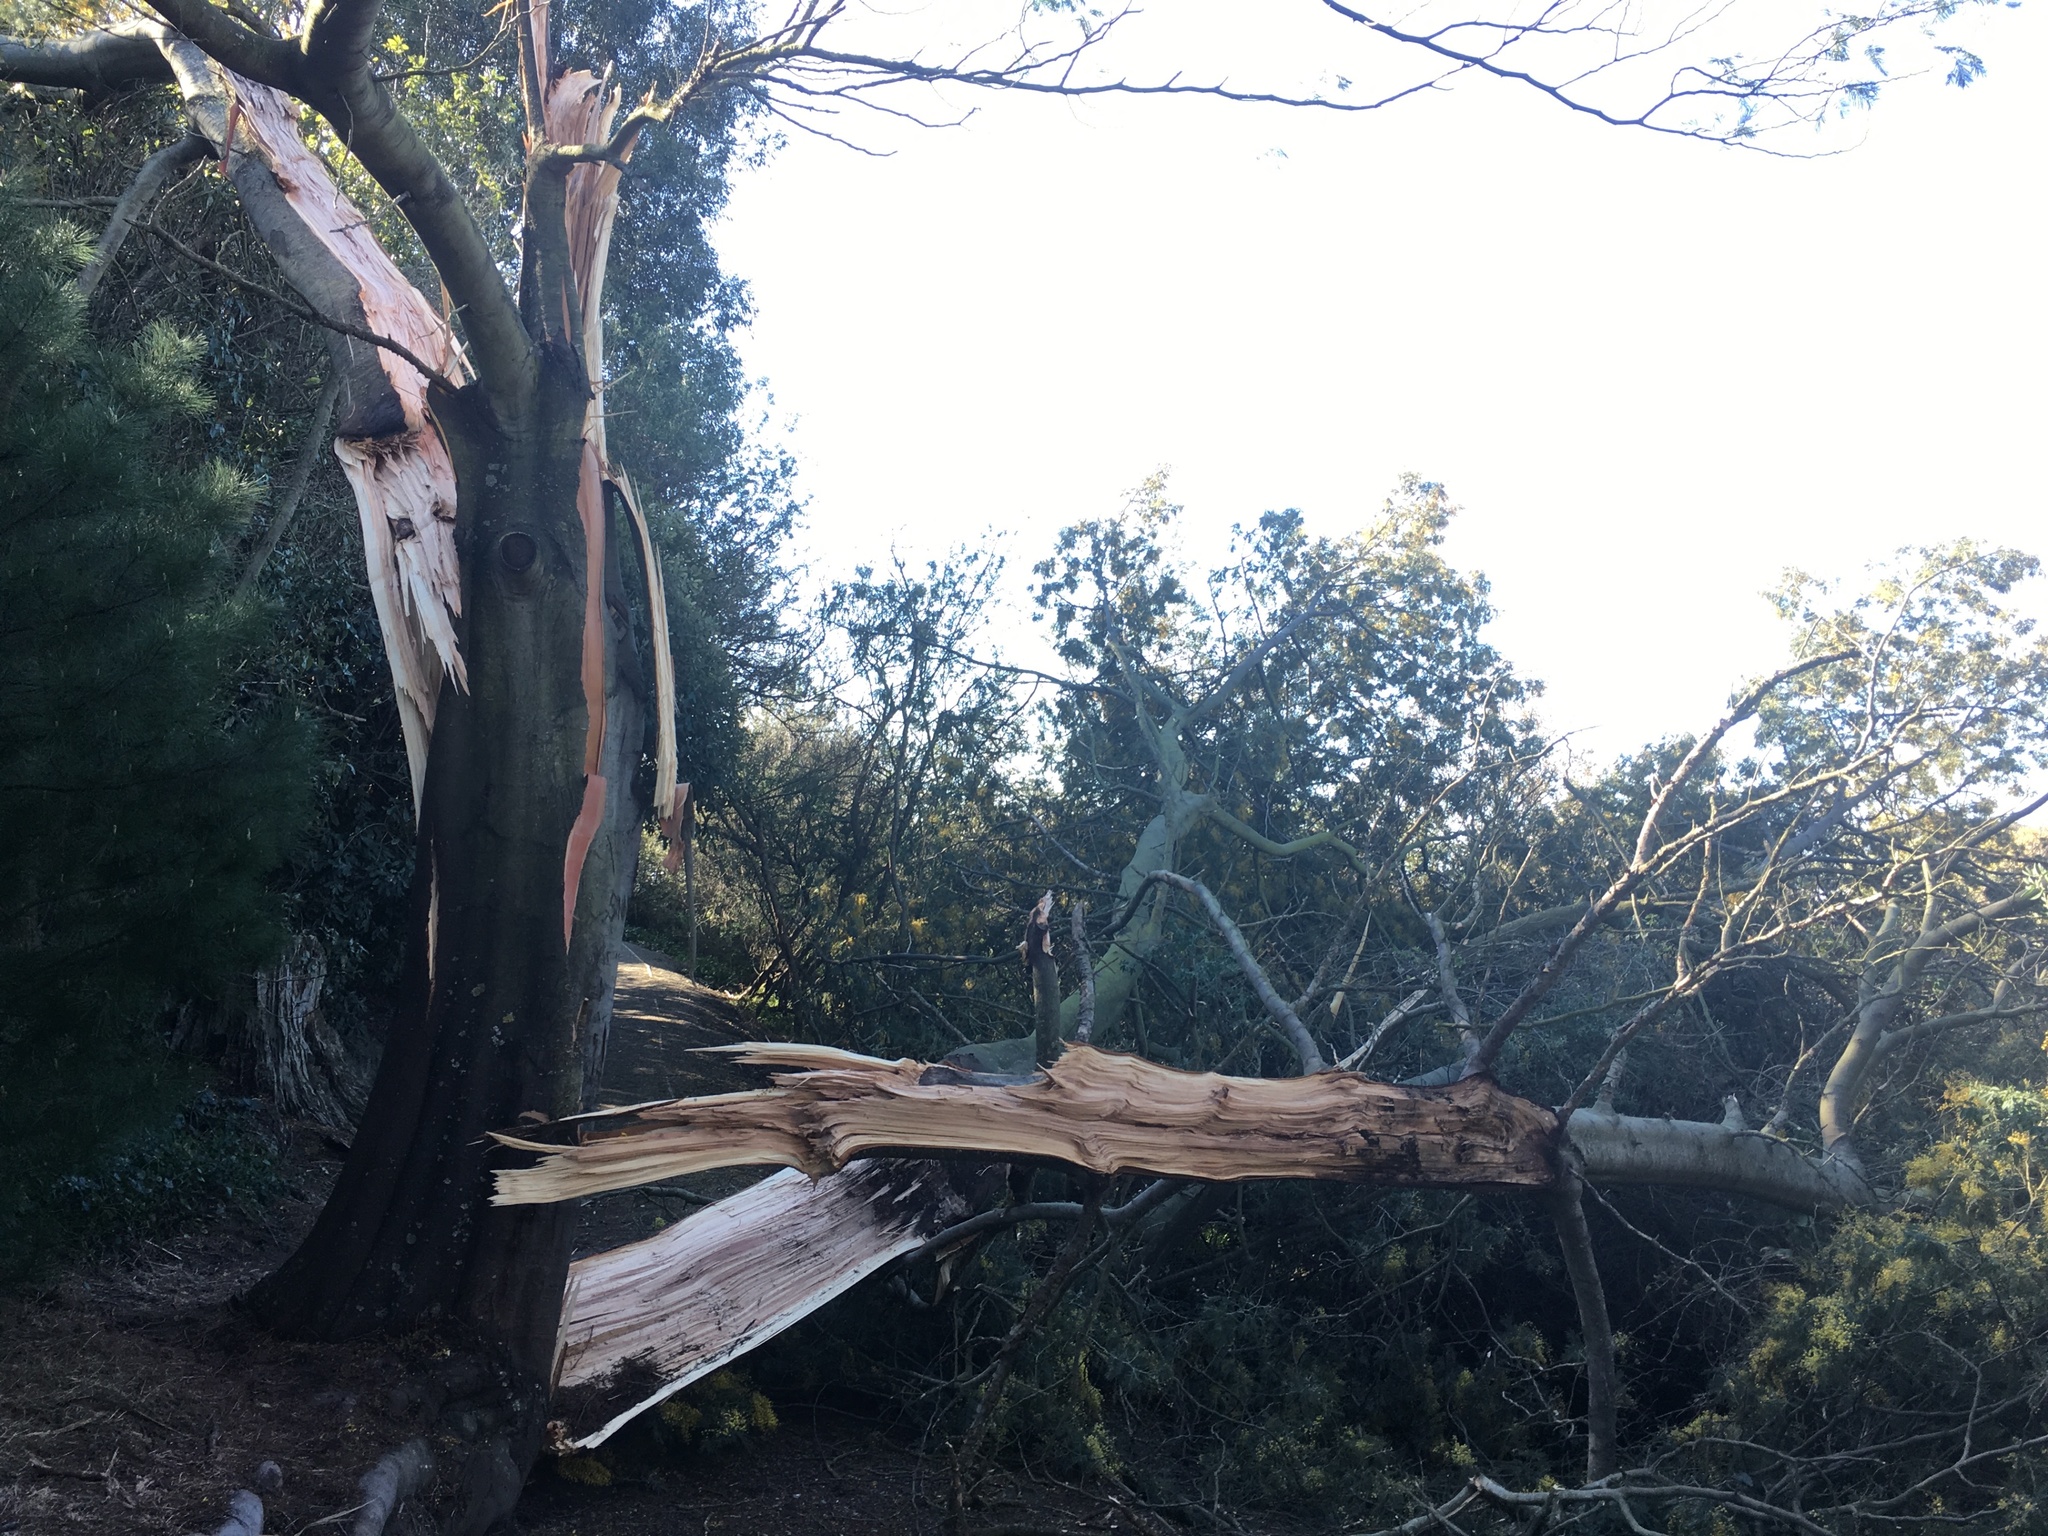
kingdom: Plantae
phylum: Tracheophyta
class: Magnoliopsida
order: Fabales
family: Fabaceae
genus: Acacia
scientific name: Acacia dealbata
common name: Silver wattle
